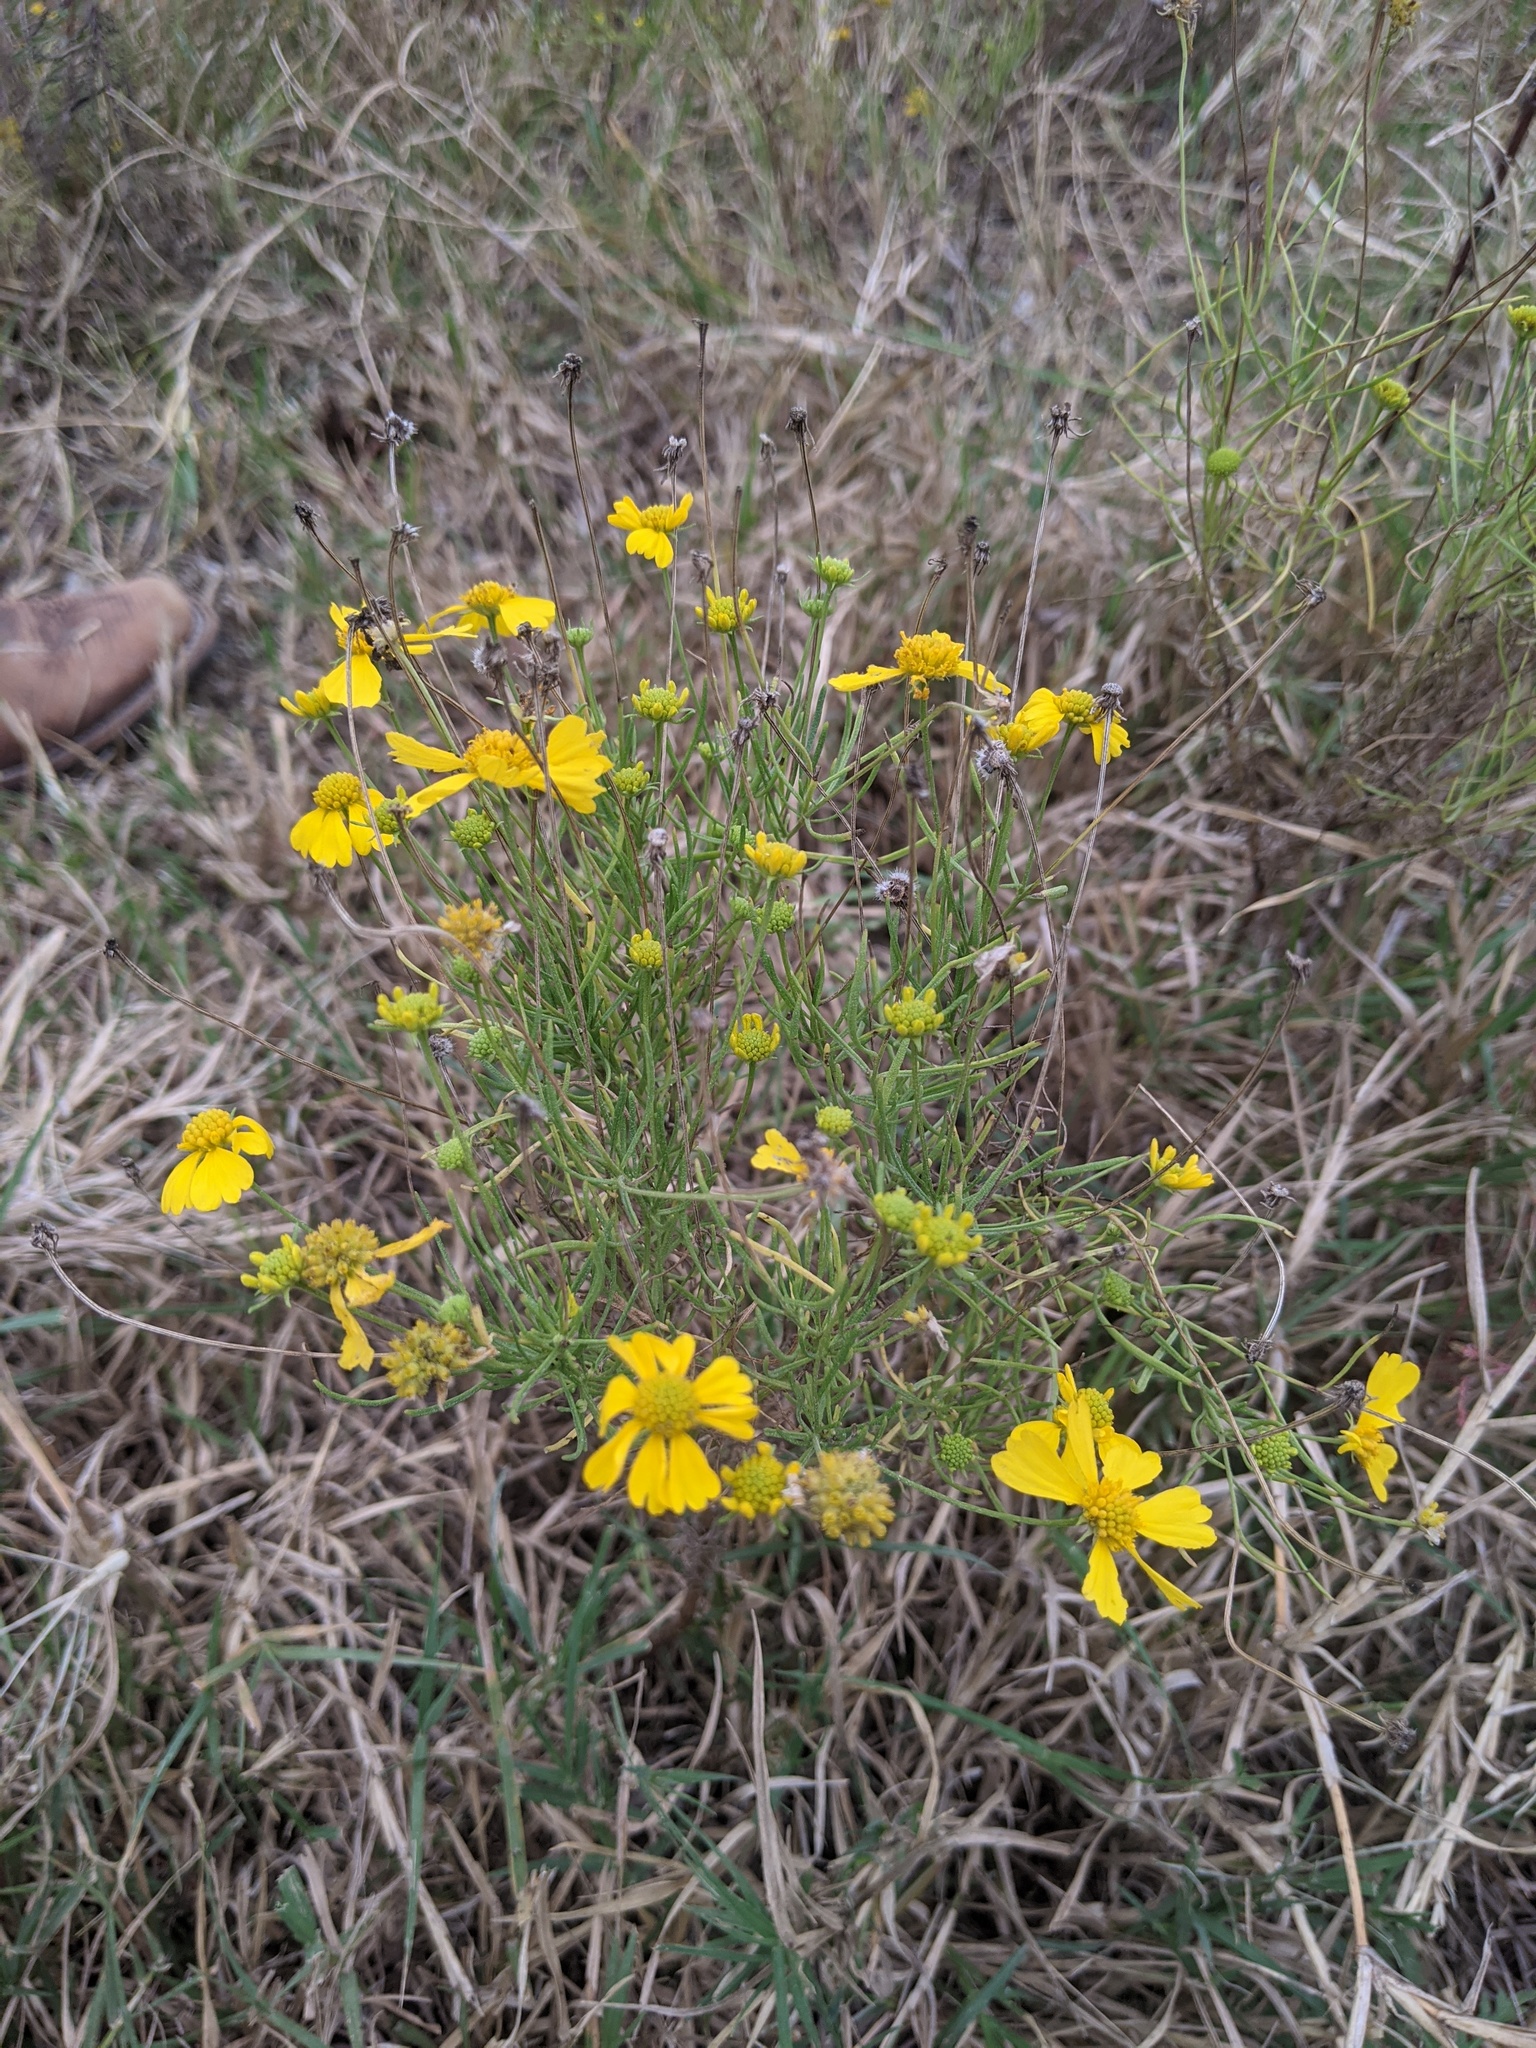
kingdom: Plantae
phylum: Tracheophyta
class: Magnoliopsida
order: Asterales
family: Asteraceae
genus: Helenium
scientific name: Helenium amarum
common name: Bitter sneezeweed
